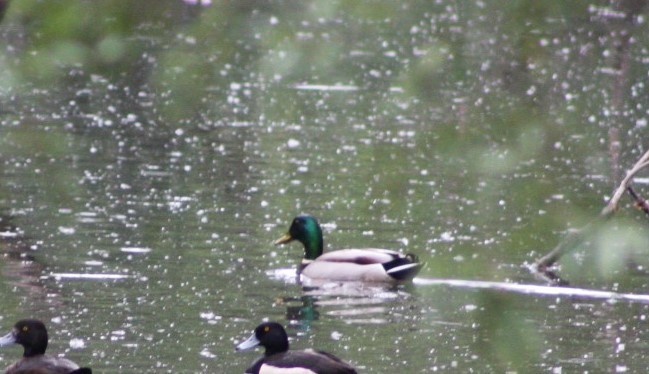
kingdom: Animalia
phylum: Chordata
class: Aves
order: Anseriformes
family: Anatidae
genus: Anas
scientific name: Anas platyrhynchos
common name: Mallard
